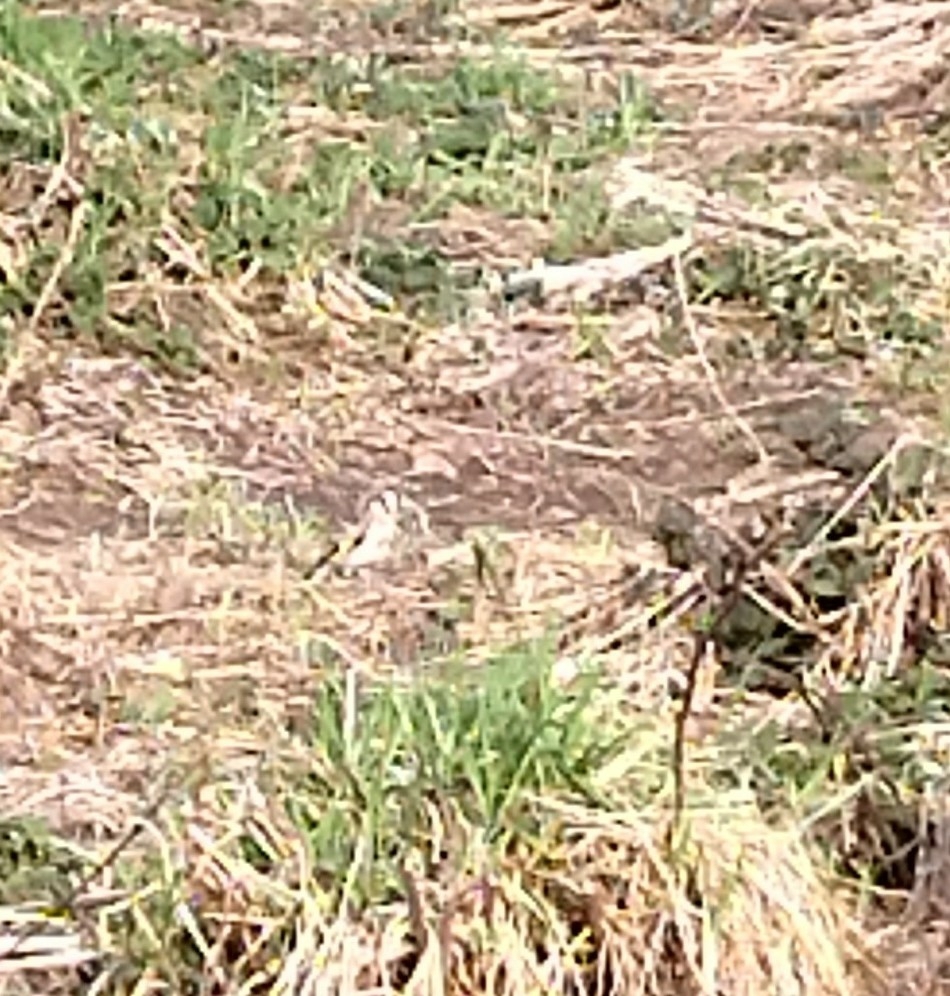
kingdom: Animalia
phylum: Chordata
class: Aves
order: Passeriformes
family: Fringillidae
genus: Carduelis
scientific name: Carduelis carduelis
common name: European goldfinch
